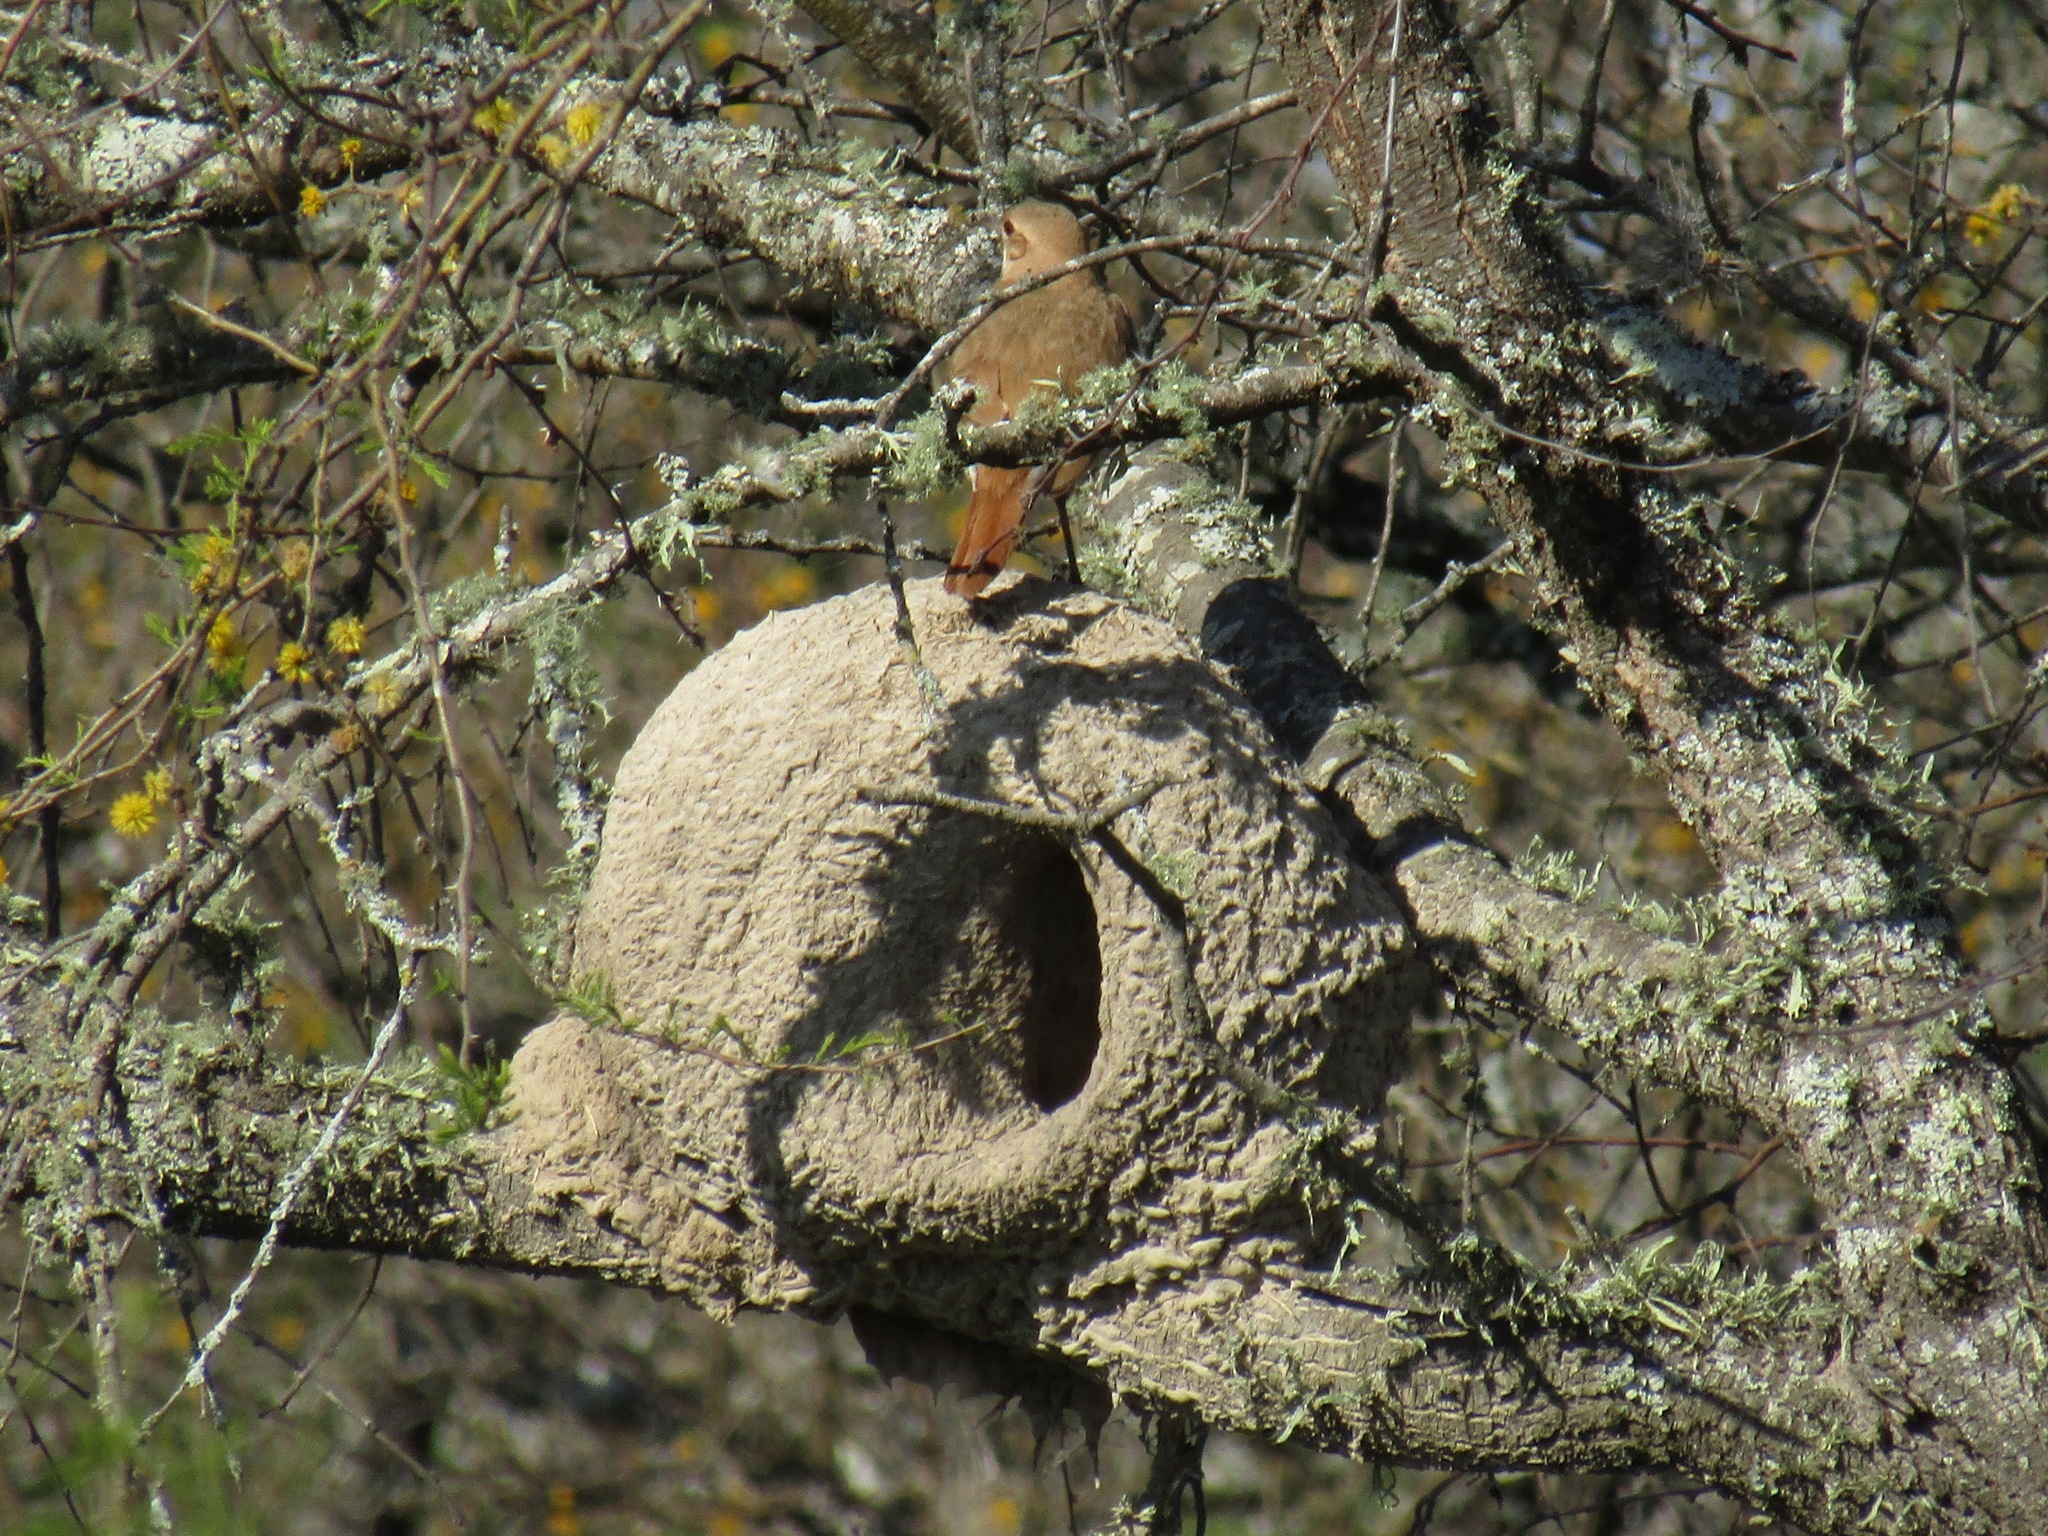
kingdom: Animalia
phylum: Chordata
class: Aves
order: Passeriformes
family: Furnariidae
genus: Furnarius
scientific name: Furnarius rufus
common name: Rufous hornero
